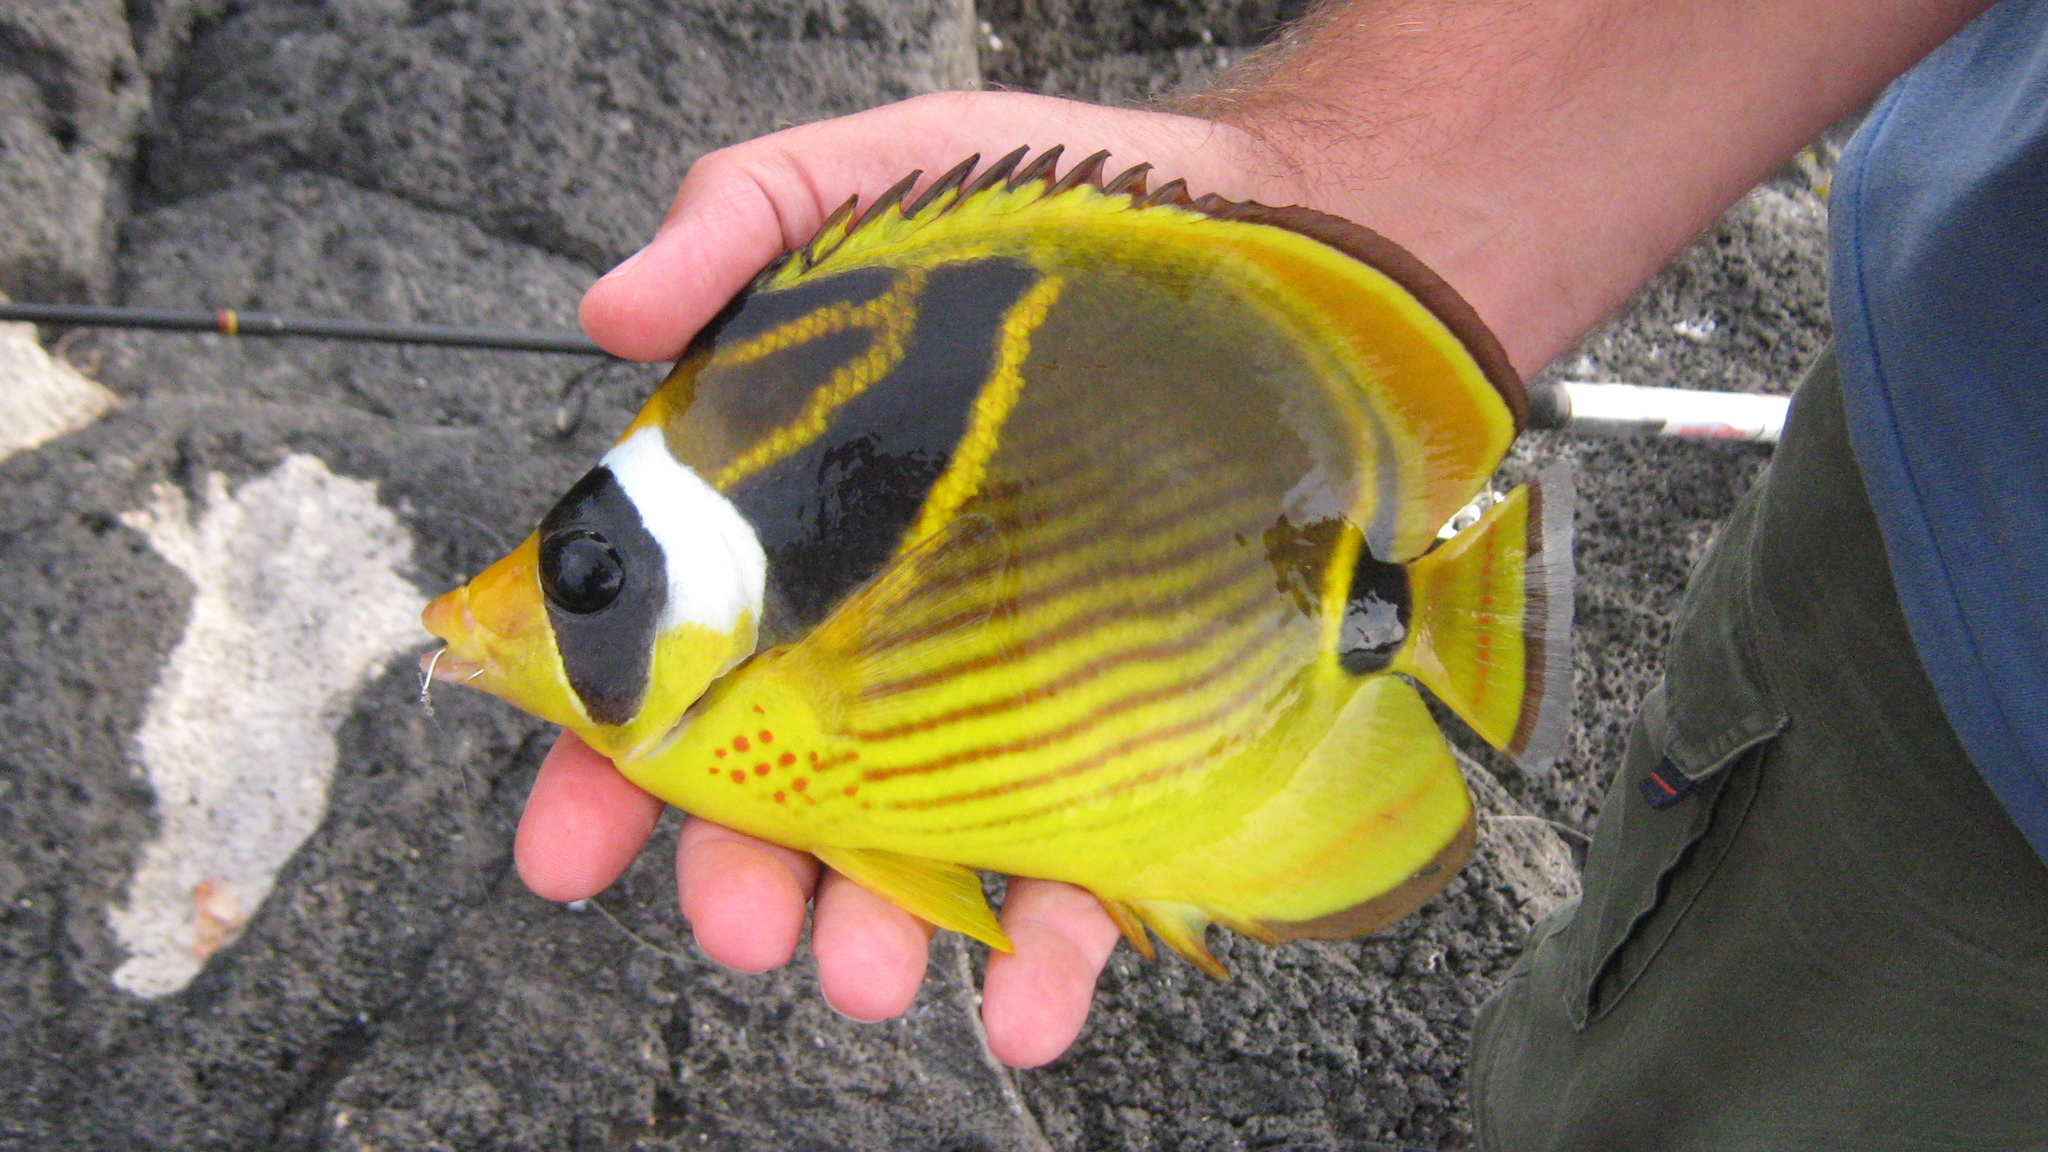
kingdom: Animalia
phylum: Chordata
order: Perciformes
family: Chaetodontidae
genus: Chaetodon
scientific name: Chaetodon lunula
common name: Raccoon butterflyfish
